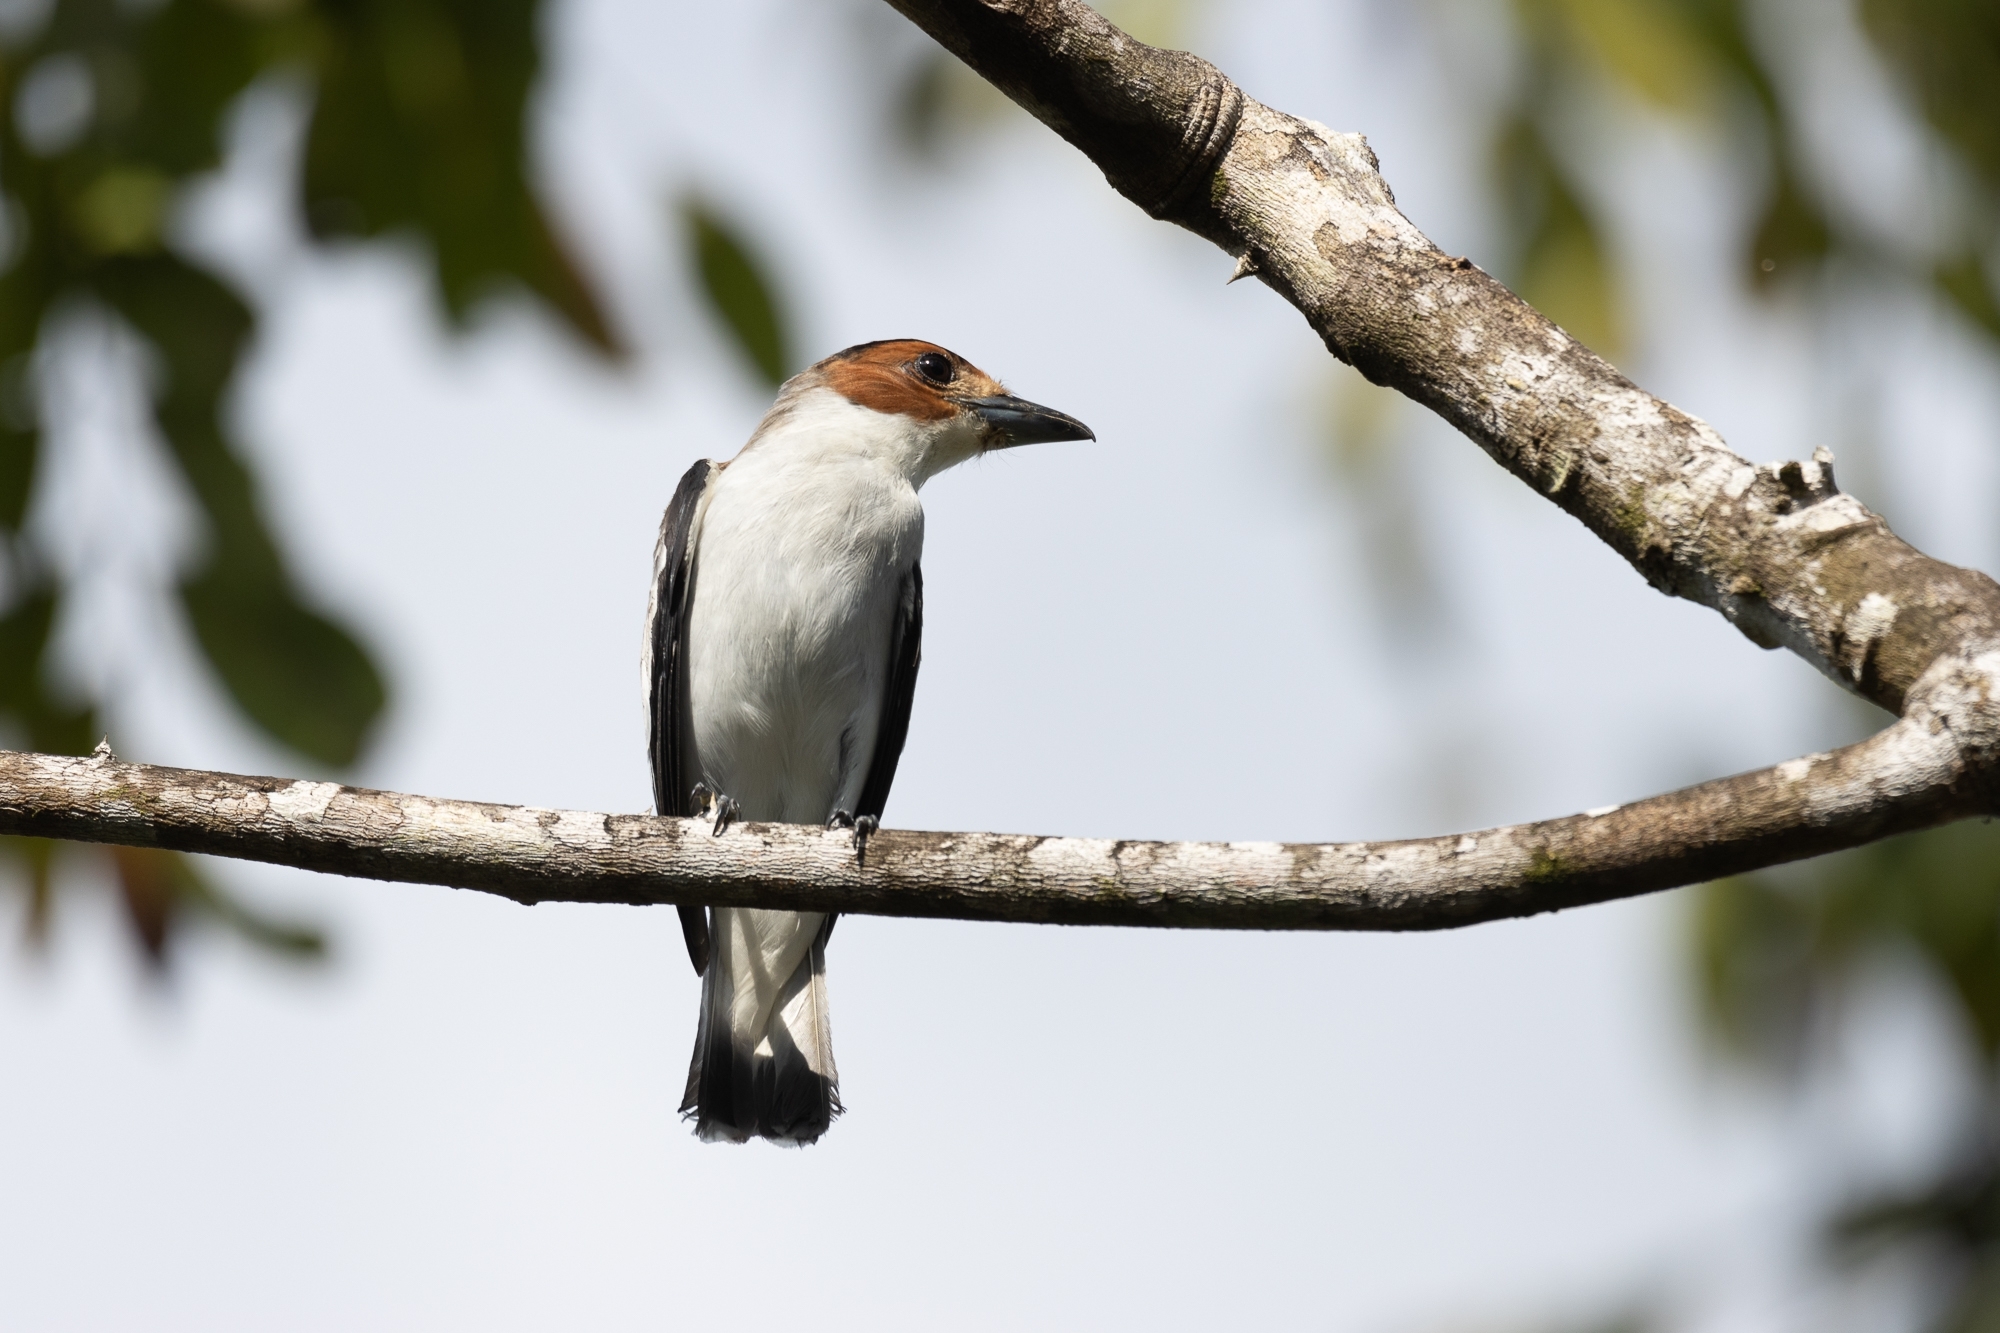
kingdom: Animalia
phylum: Chordata
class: Aves
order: Passeriformes
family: Cotingidae
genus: Tityra
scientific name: Tityra inquisitor
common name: Black-crowned tityra
